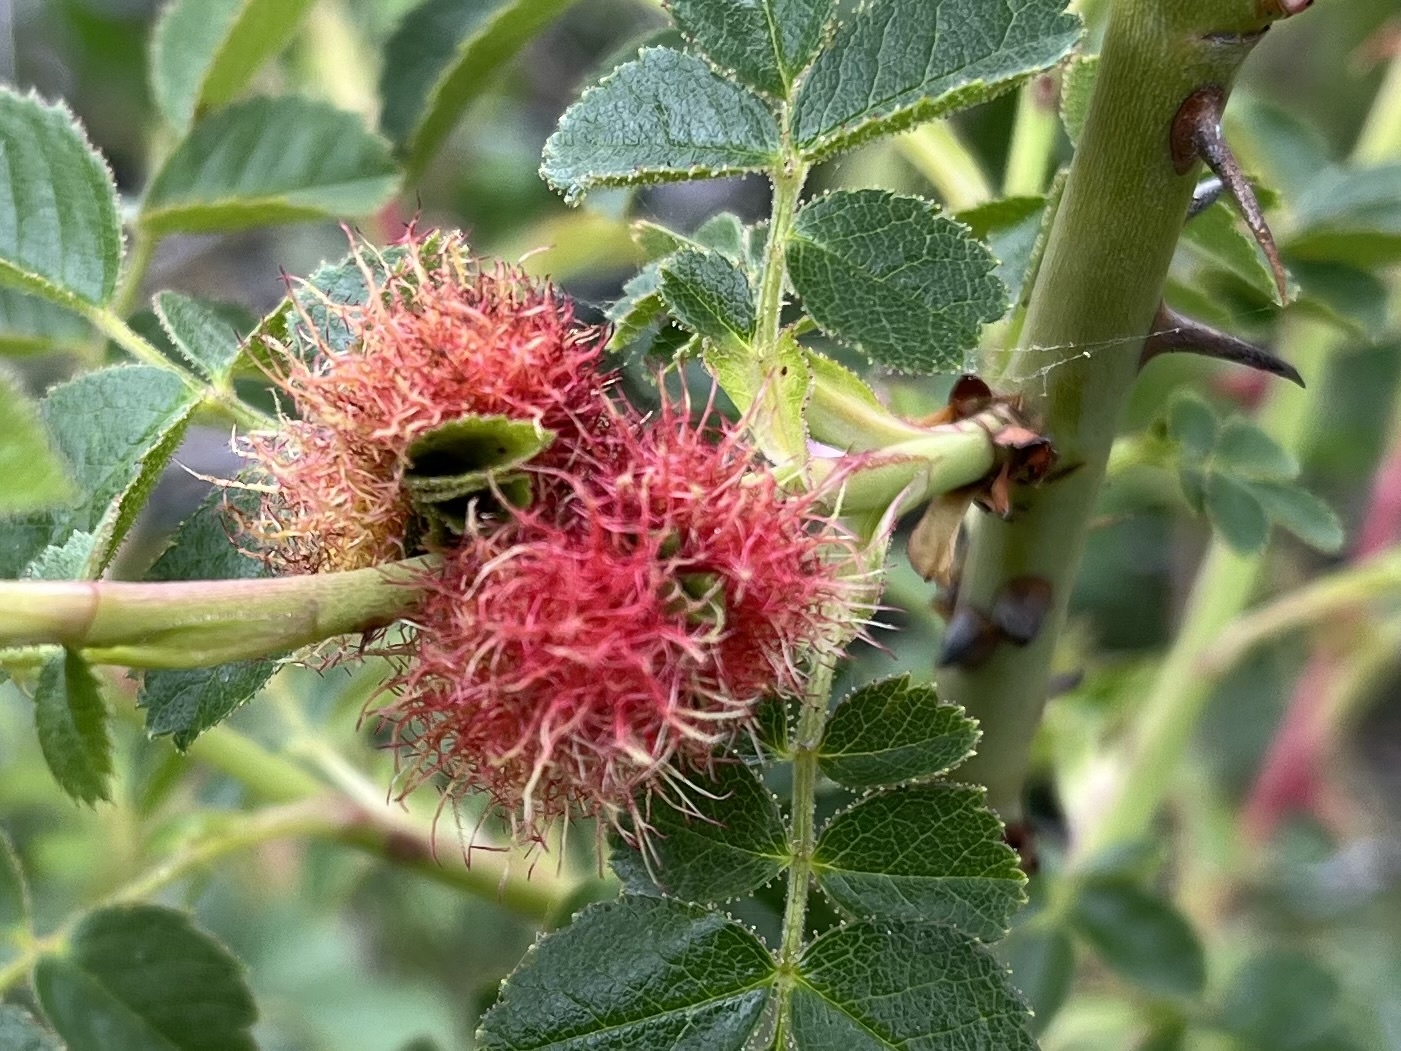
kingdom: Animalia
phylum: Arthropoda
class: Insecta
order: Hymenoptera
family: Cynipidae
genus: Diplolepis
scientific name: Diplolepis rosae
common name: Bedeguar gall
